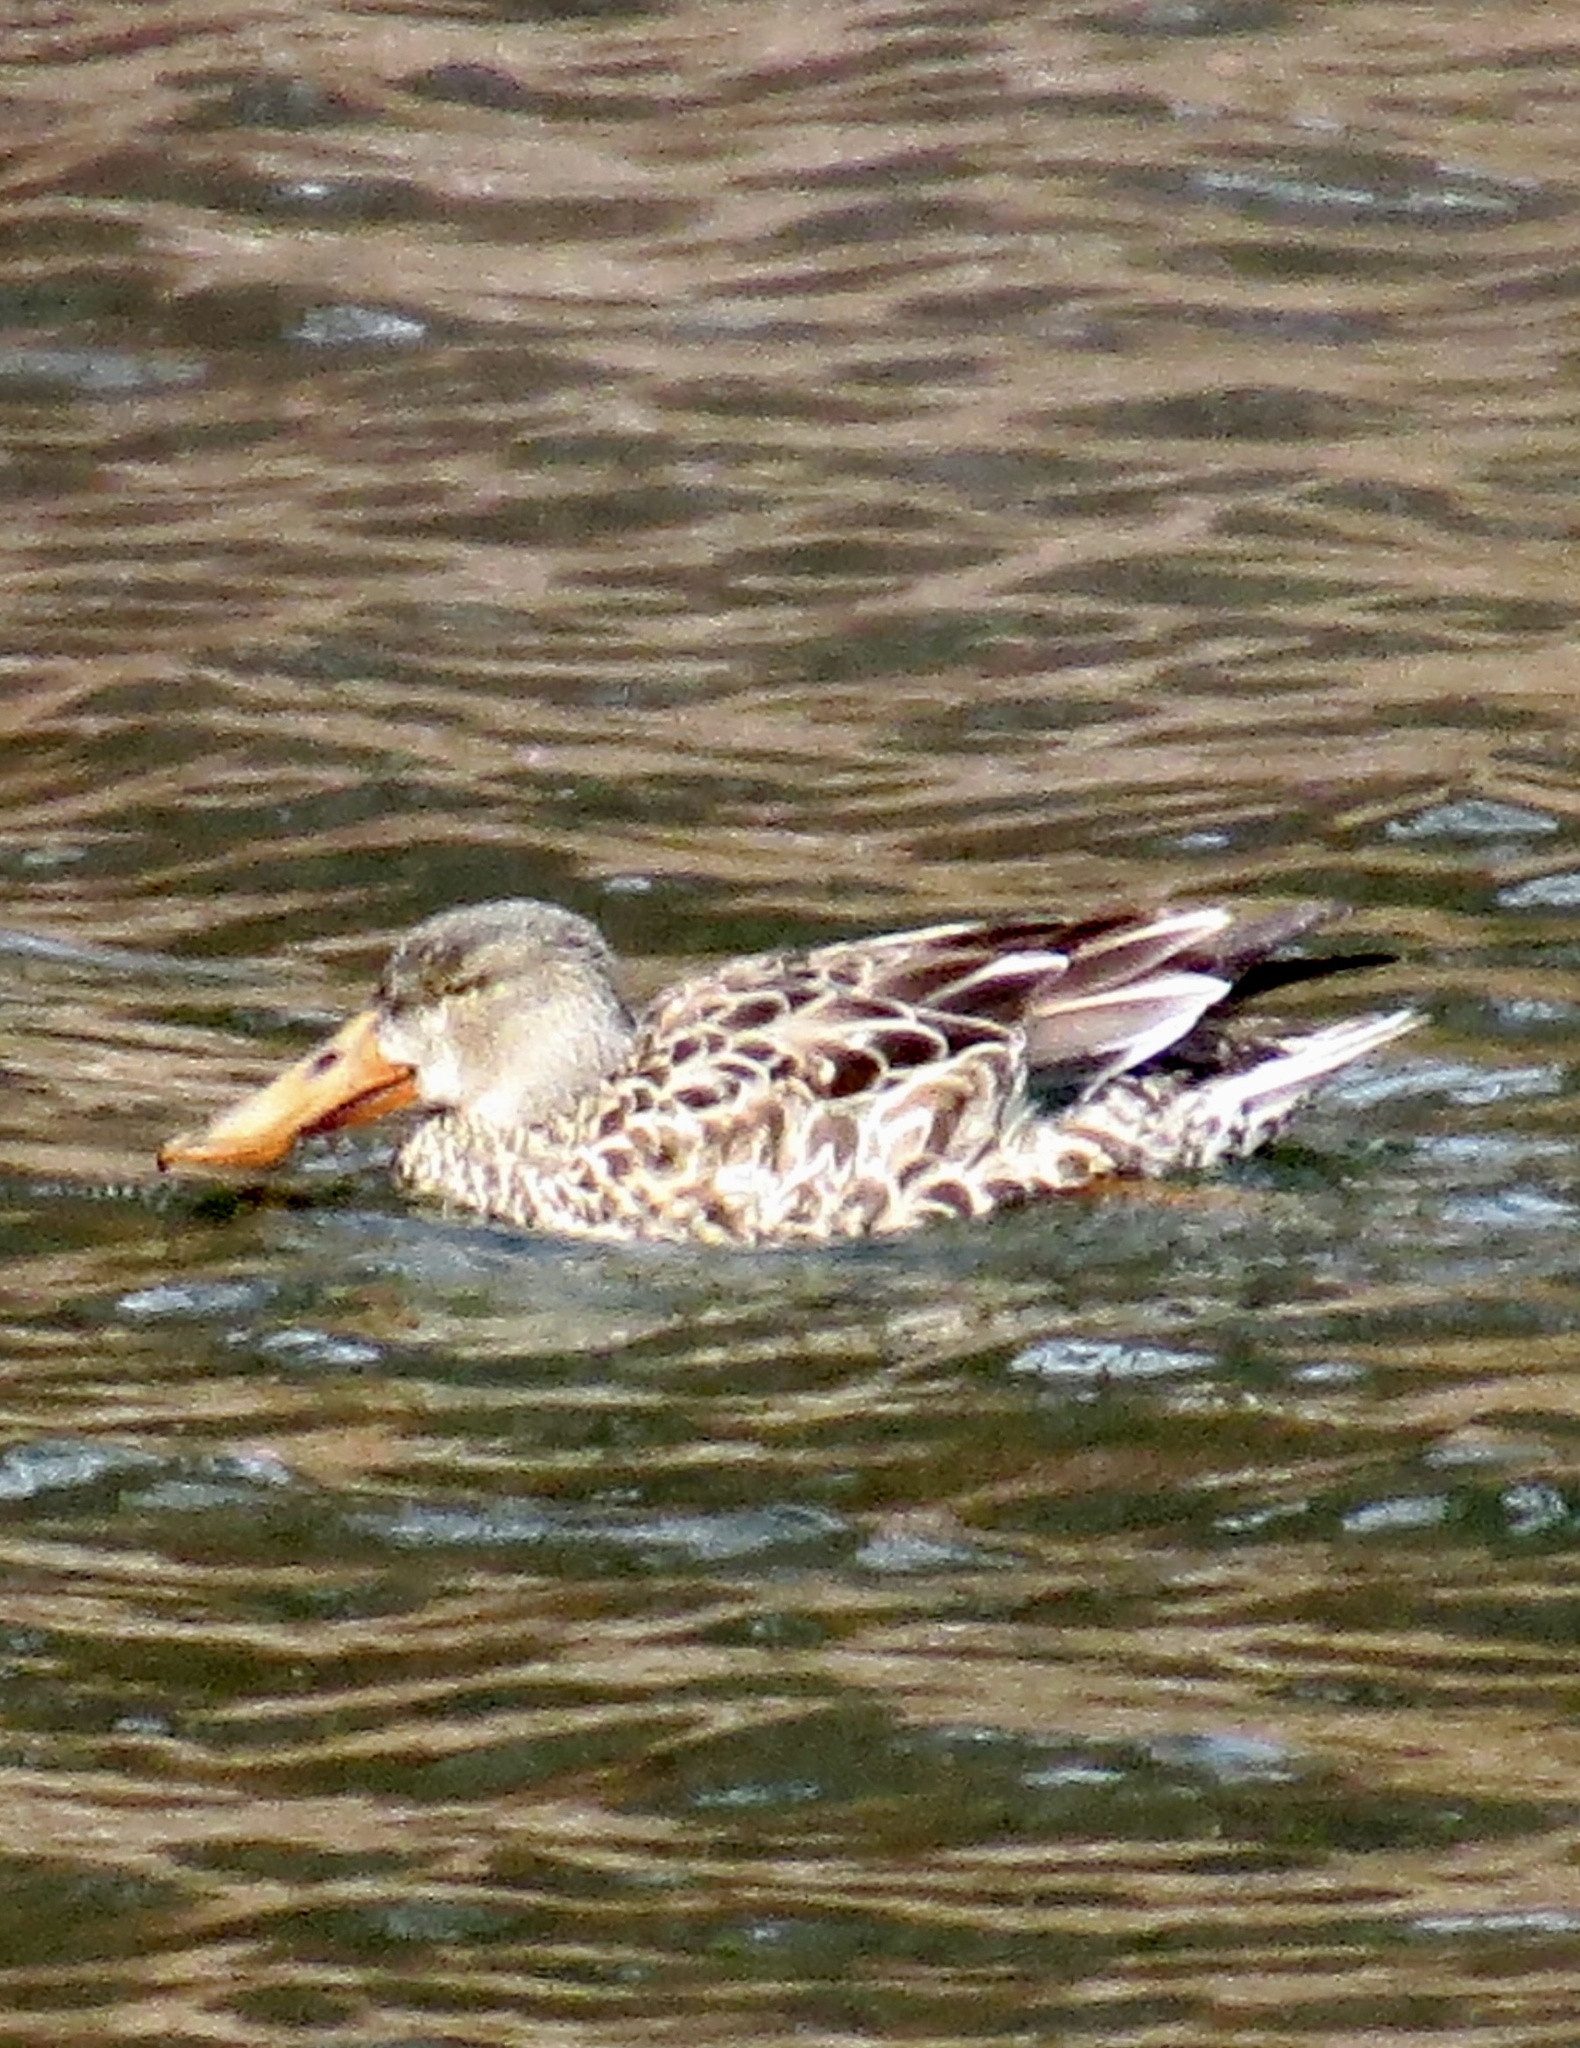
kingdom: Animalia
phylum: Chordata
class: Aves
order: Anseriformes
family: Anatidae
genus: Spatula
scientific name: Spatula clypeata
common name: Northern shoveler
